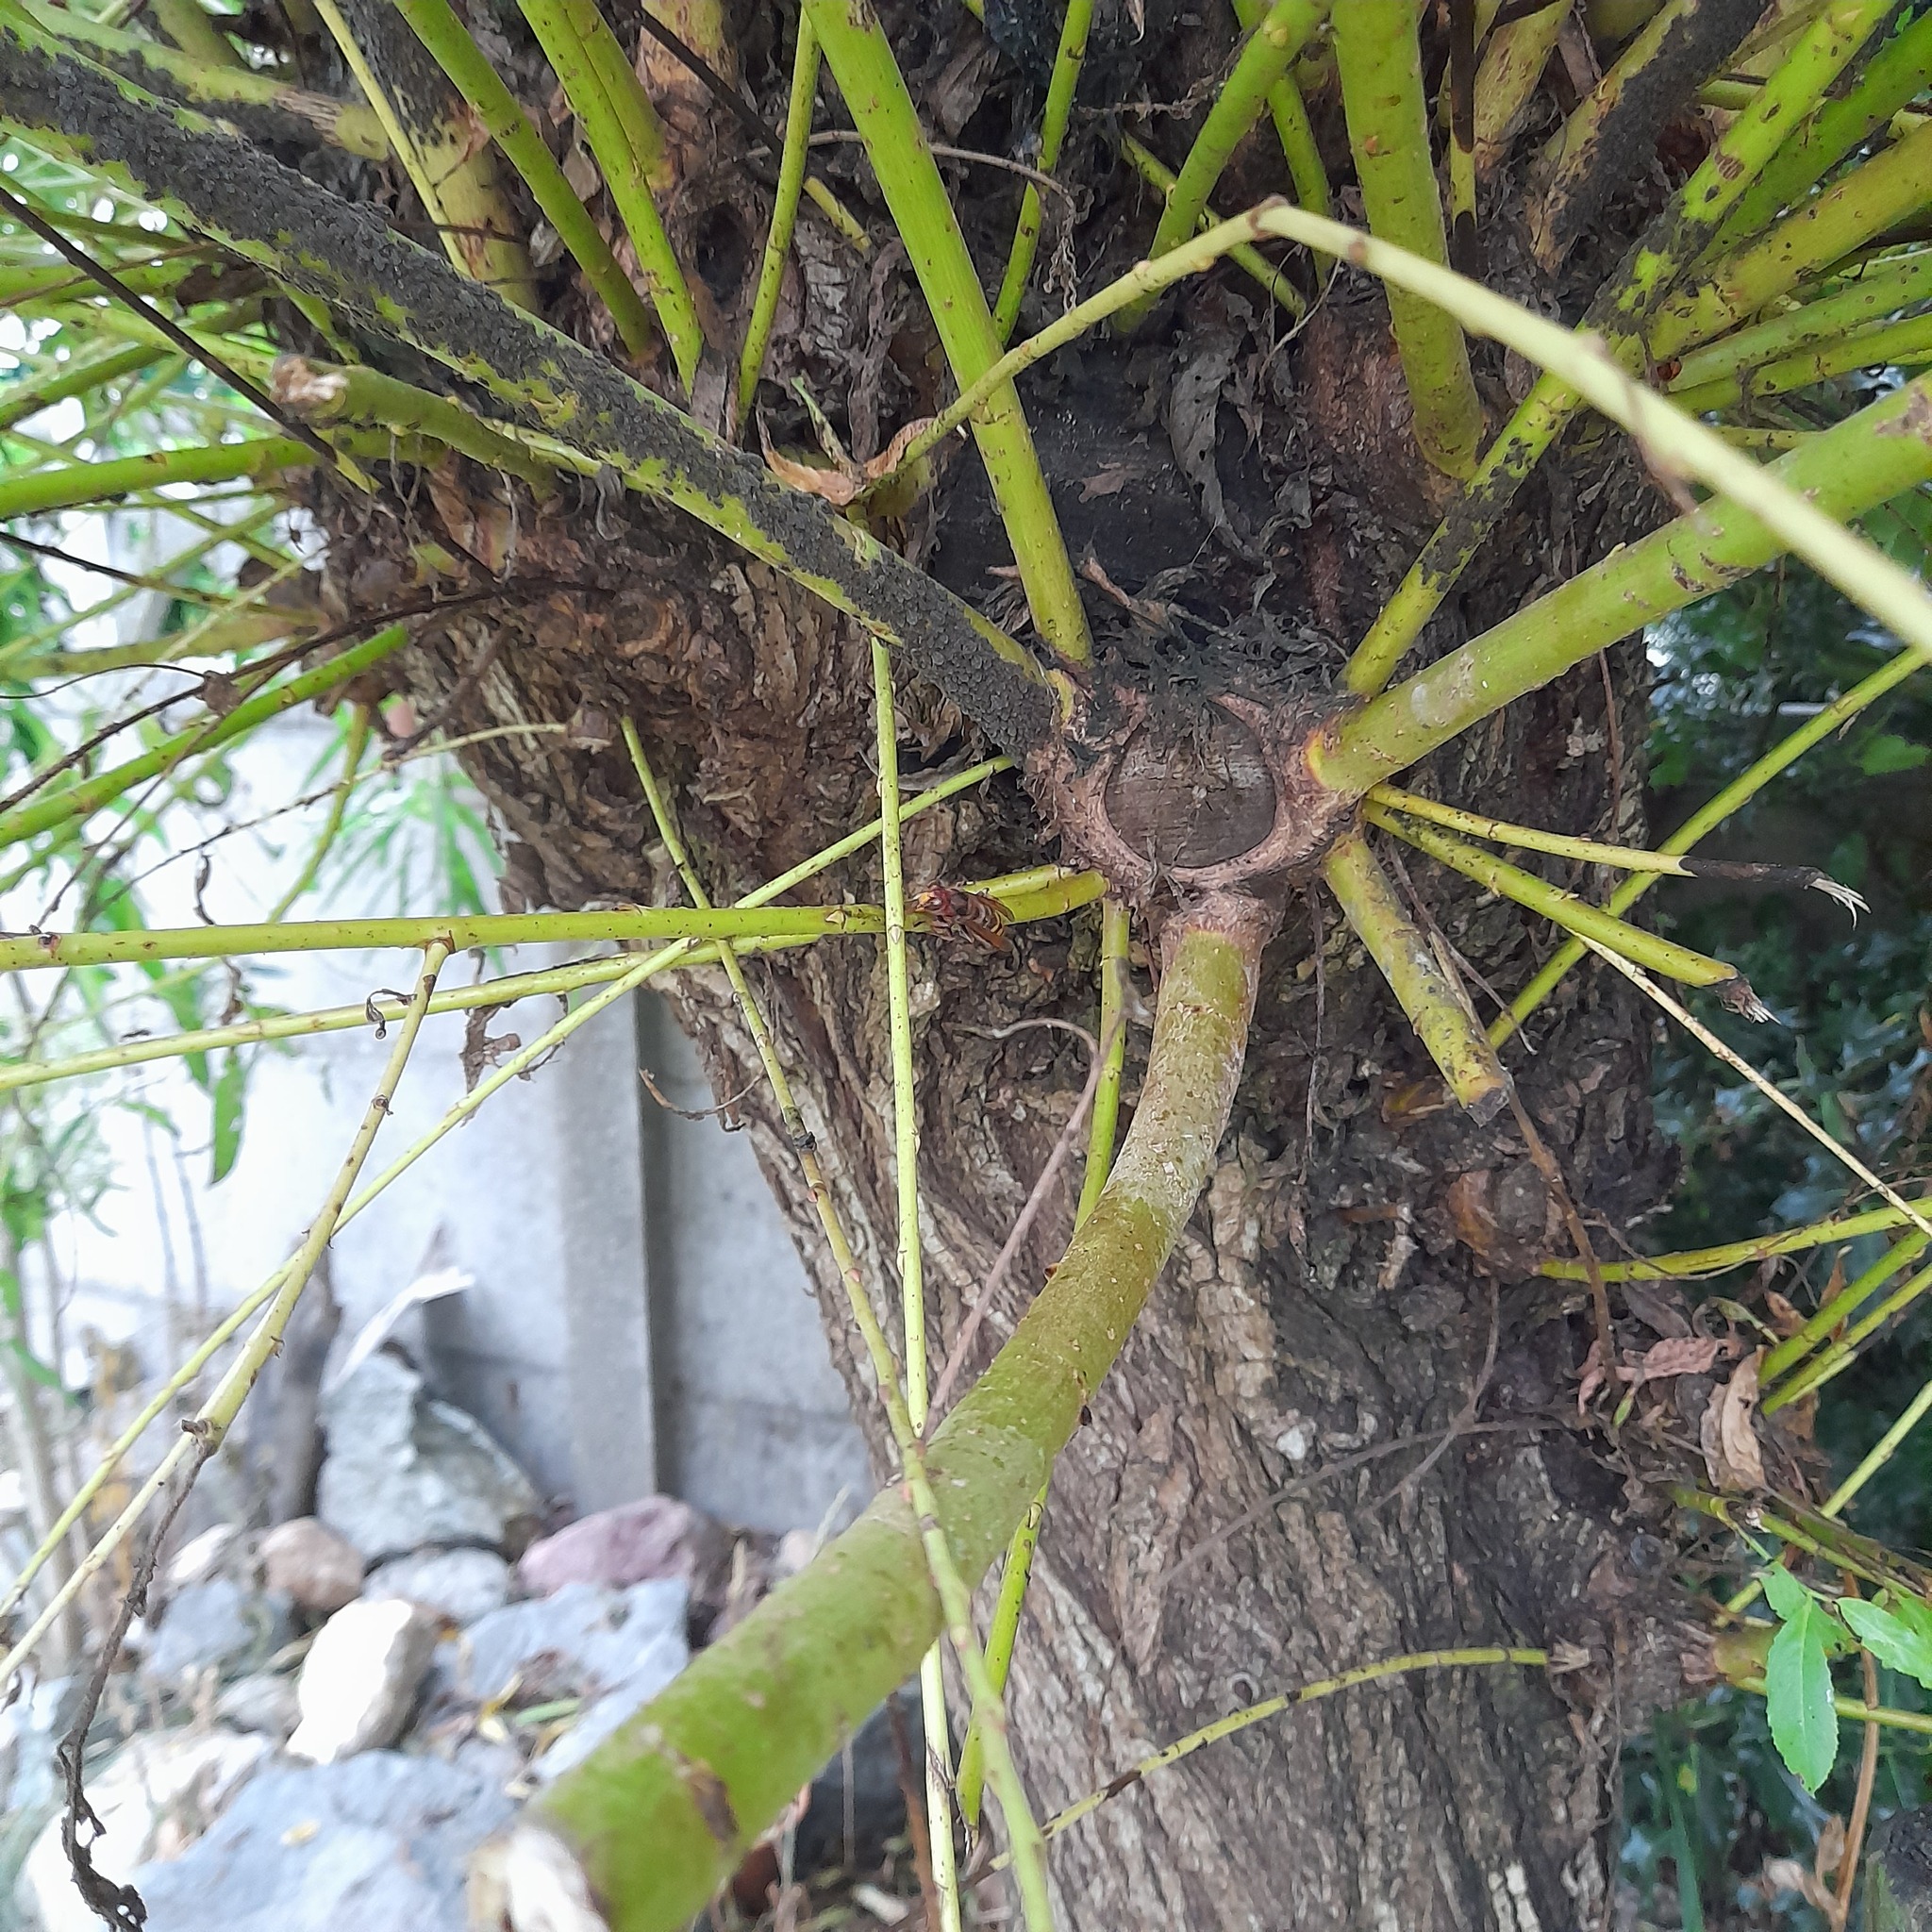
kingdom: Animalia
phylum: Arthropoda
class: Insecta
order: Hymenoptera
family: Vespidae
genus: Vespa
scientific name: Vespa crabro
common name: Hornet
